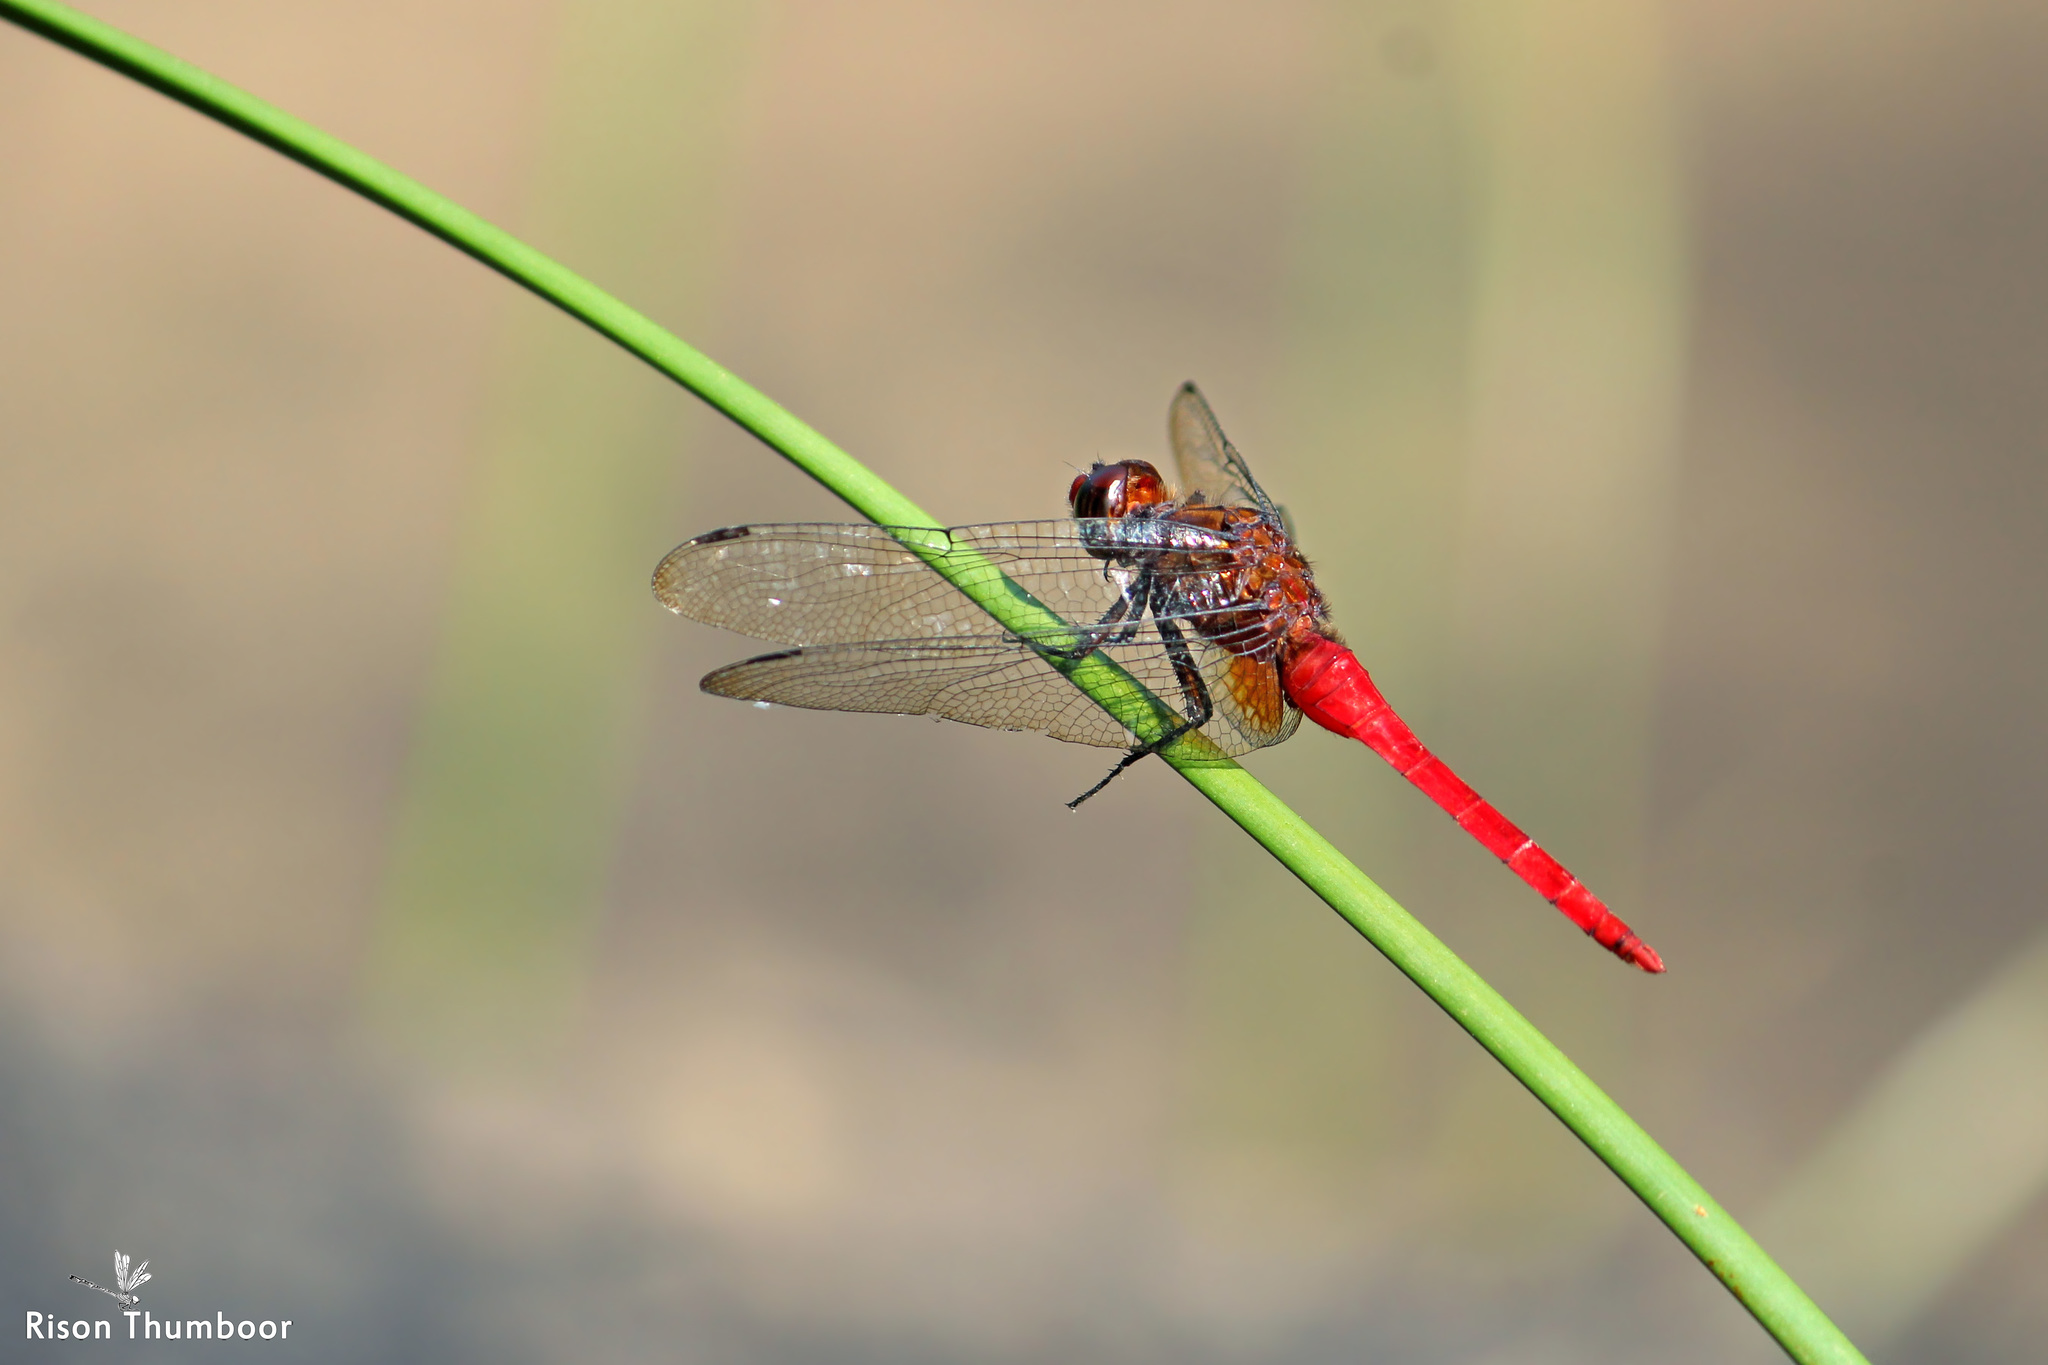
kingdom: Animalia
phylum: Arthropoda
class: Insecta
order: Odonata
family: Libellulidae
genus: Orthetrum
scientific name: Orthetrum chrysis
